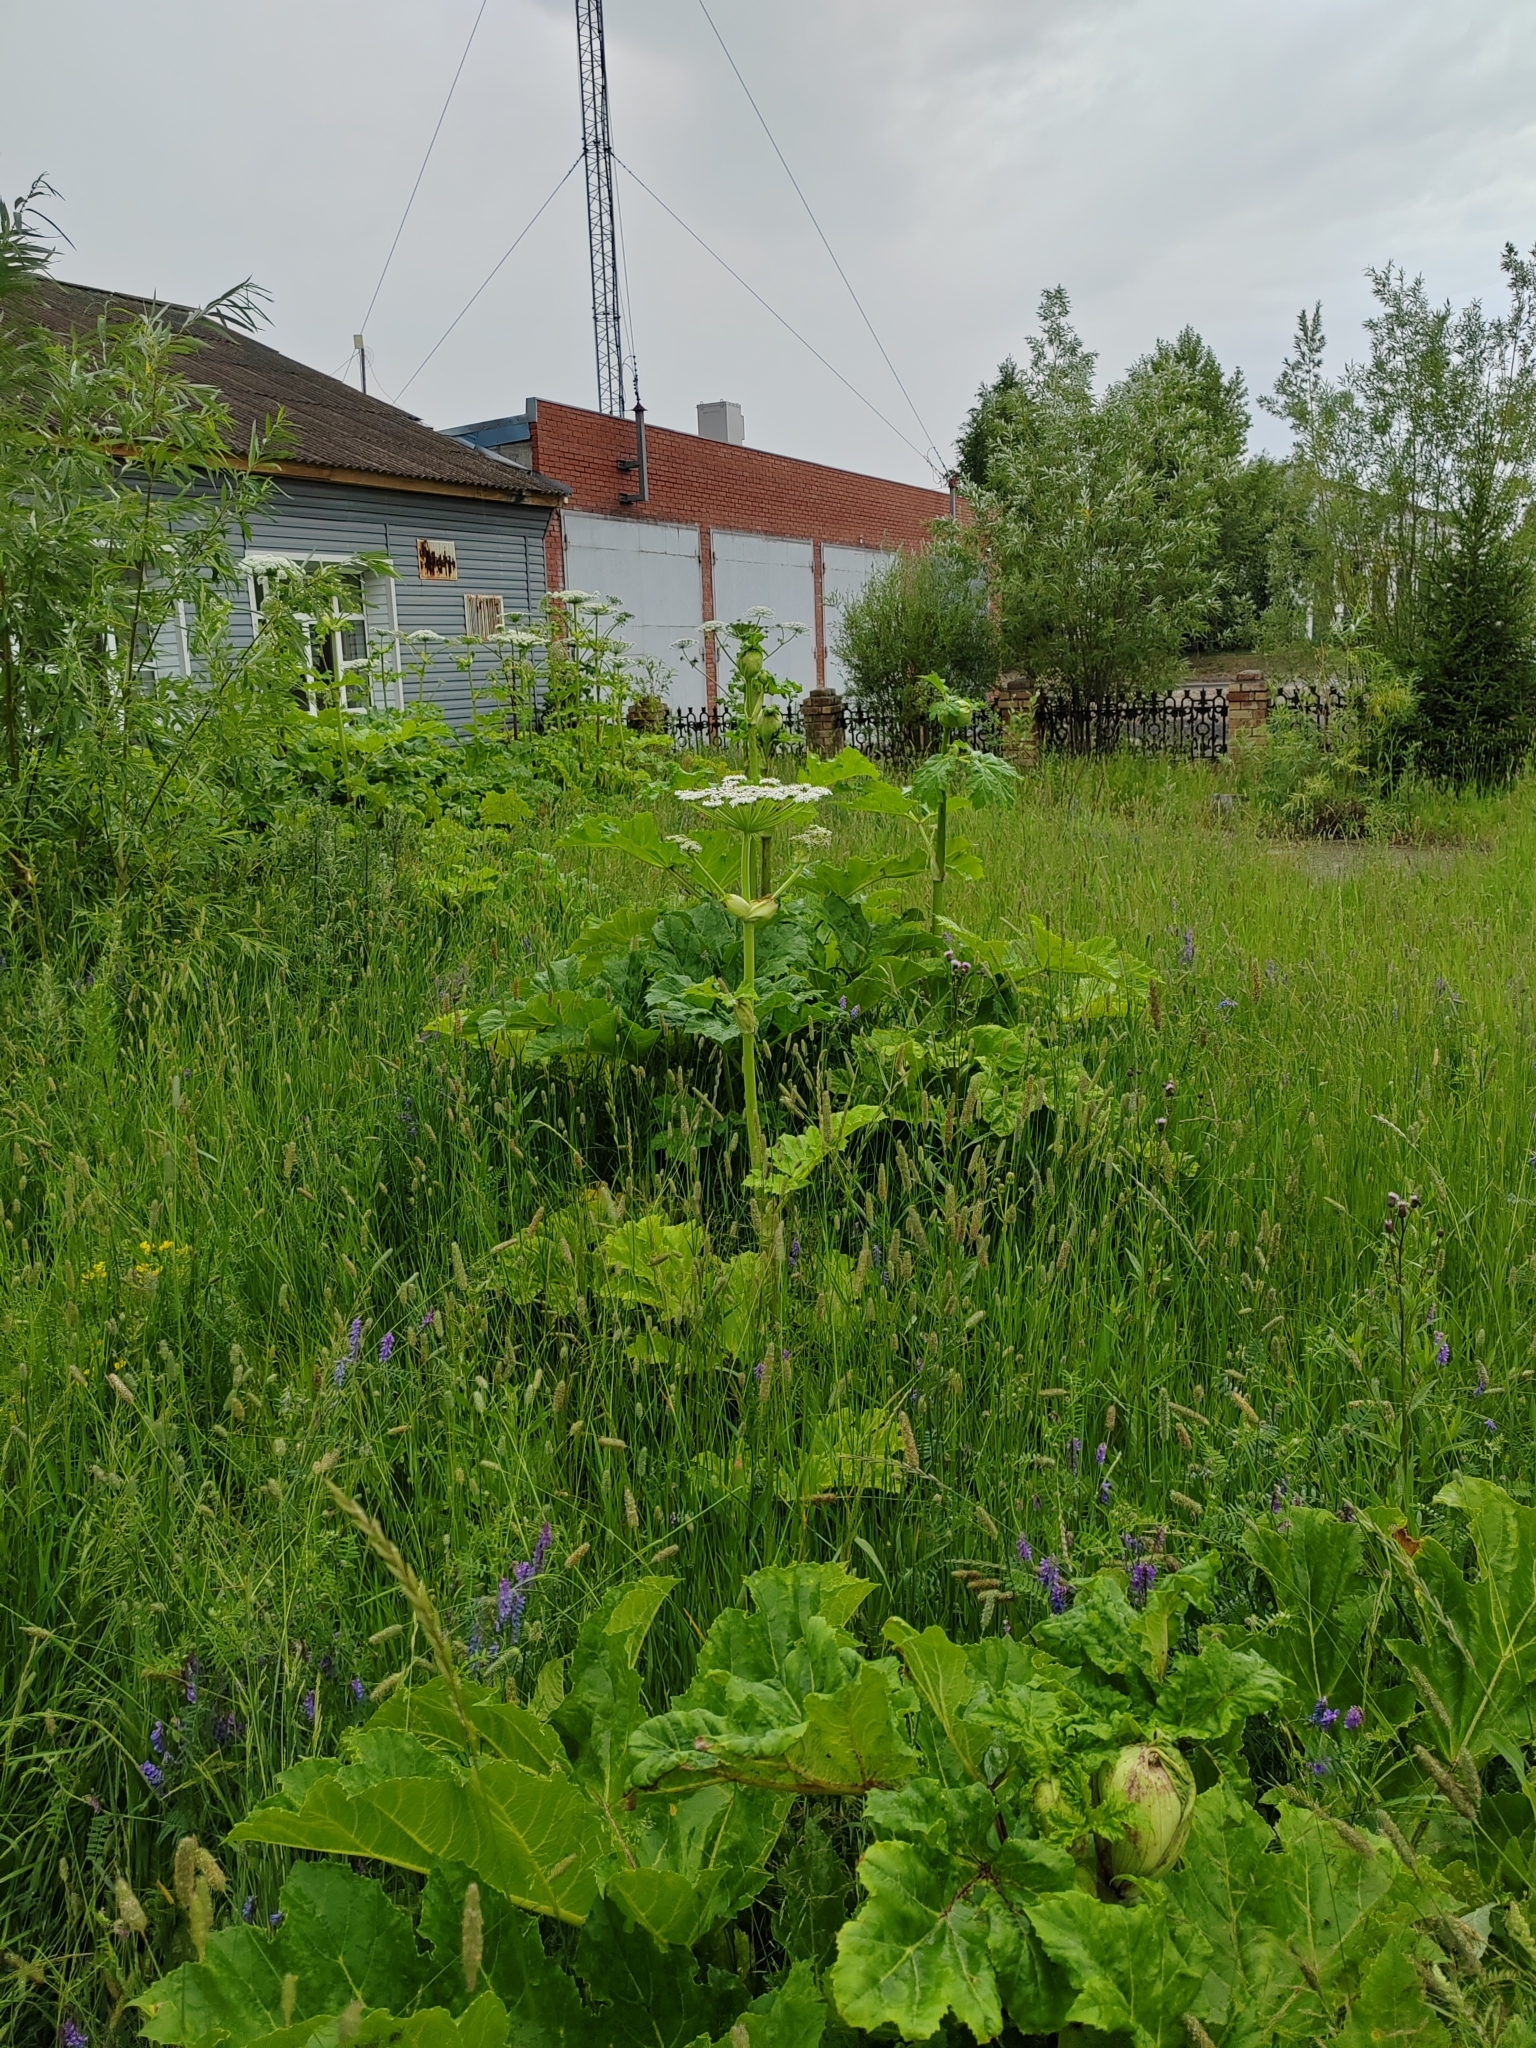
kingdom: Plantae
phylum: Tracheophyta
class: Magnoliopsida
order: Apiales
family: Apiaceae
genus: Heracleum
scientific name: Heracleum sosnowskyi
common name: Sosnowsky's hogweed
